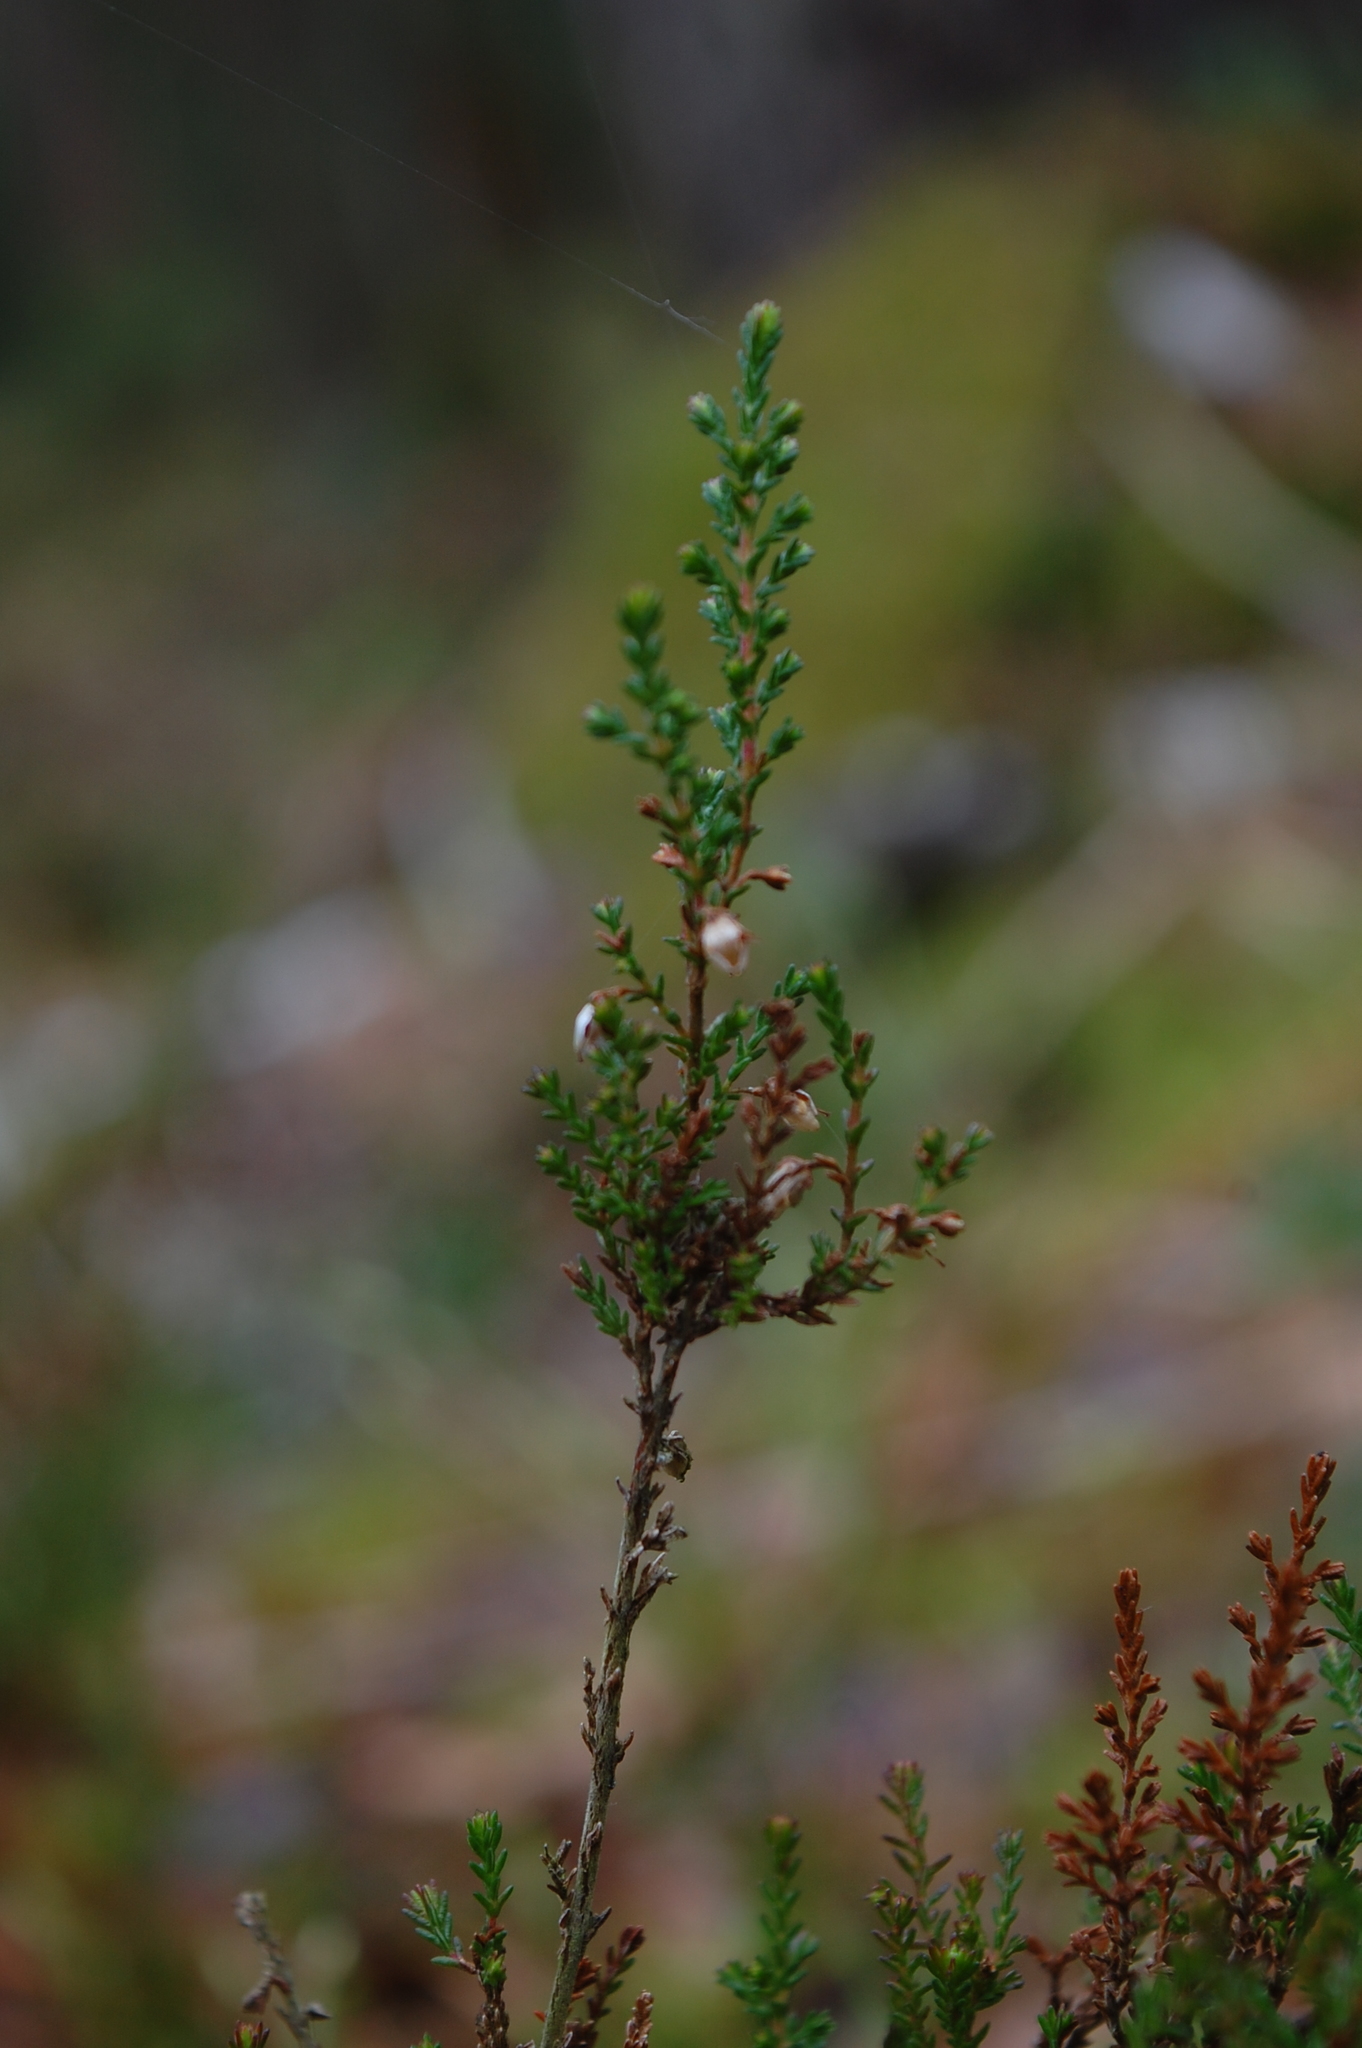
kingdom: Plantae
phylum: Tracheophyta
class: Magnoliopsida
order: Ericales
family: Ericaceae
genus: Calluna
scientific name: Calluna vulgaris
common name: Heather
